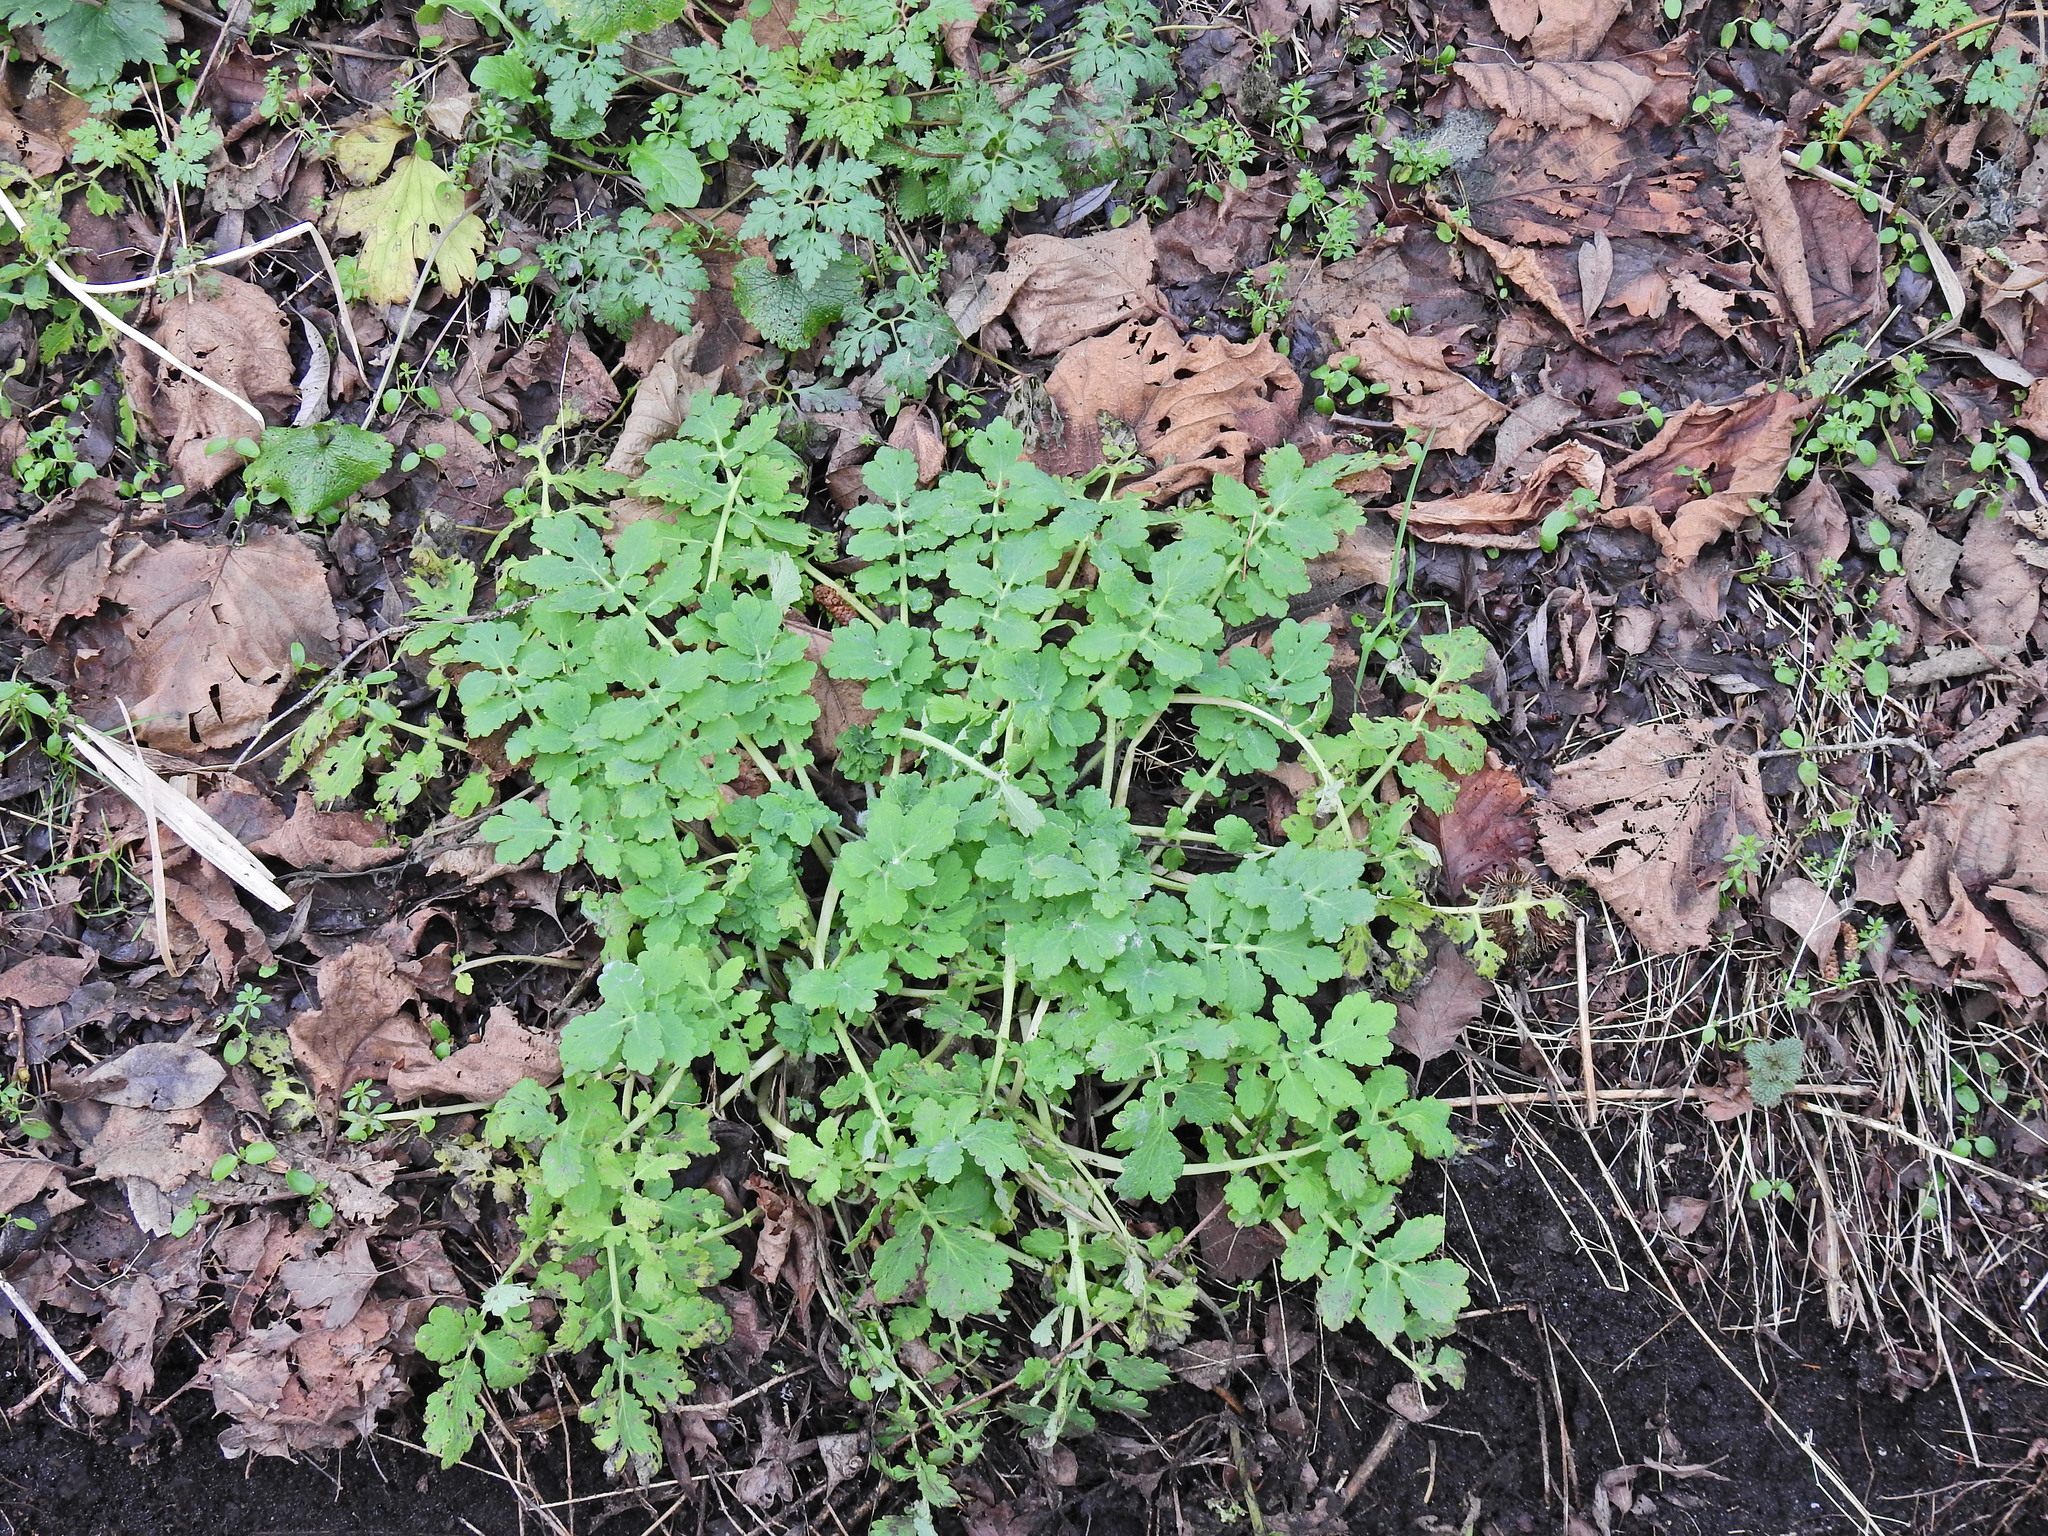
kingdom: Plantae
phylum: Tracheophyta
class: Magnoliopsida
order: Ranunculales
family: Papaveraceae
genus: Chelidonium
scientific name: Chelidonium majus
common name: Greater celandine
